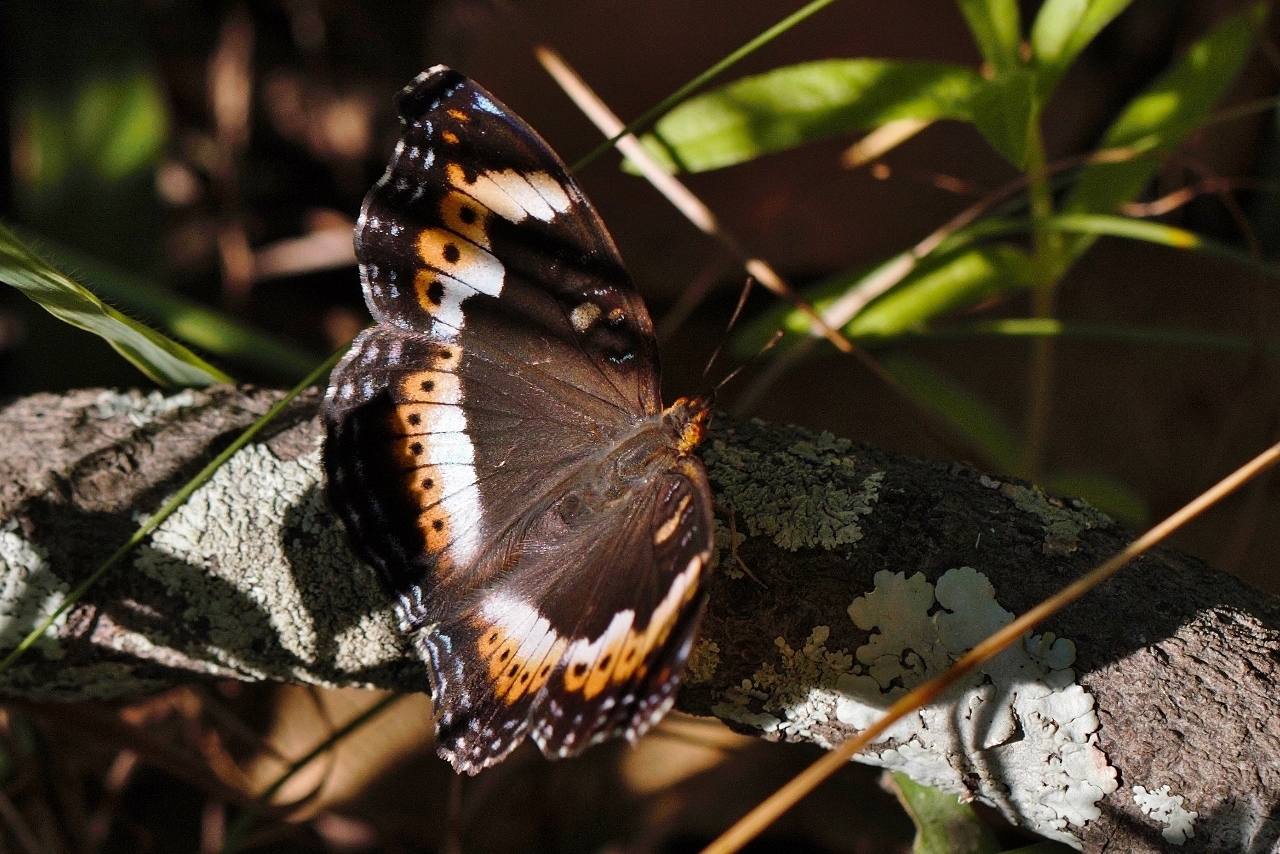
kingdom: Animalia
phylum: Arthropoda
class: Insecta
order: Lepidoptera
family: Nymphalidae
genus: Precis
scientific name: Precis actia
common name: Air commodore
